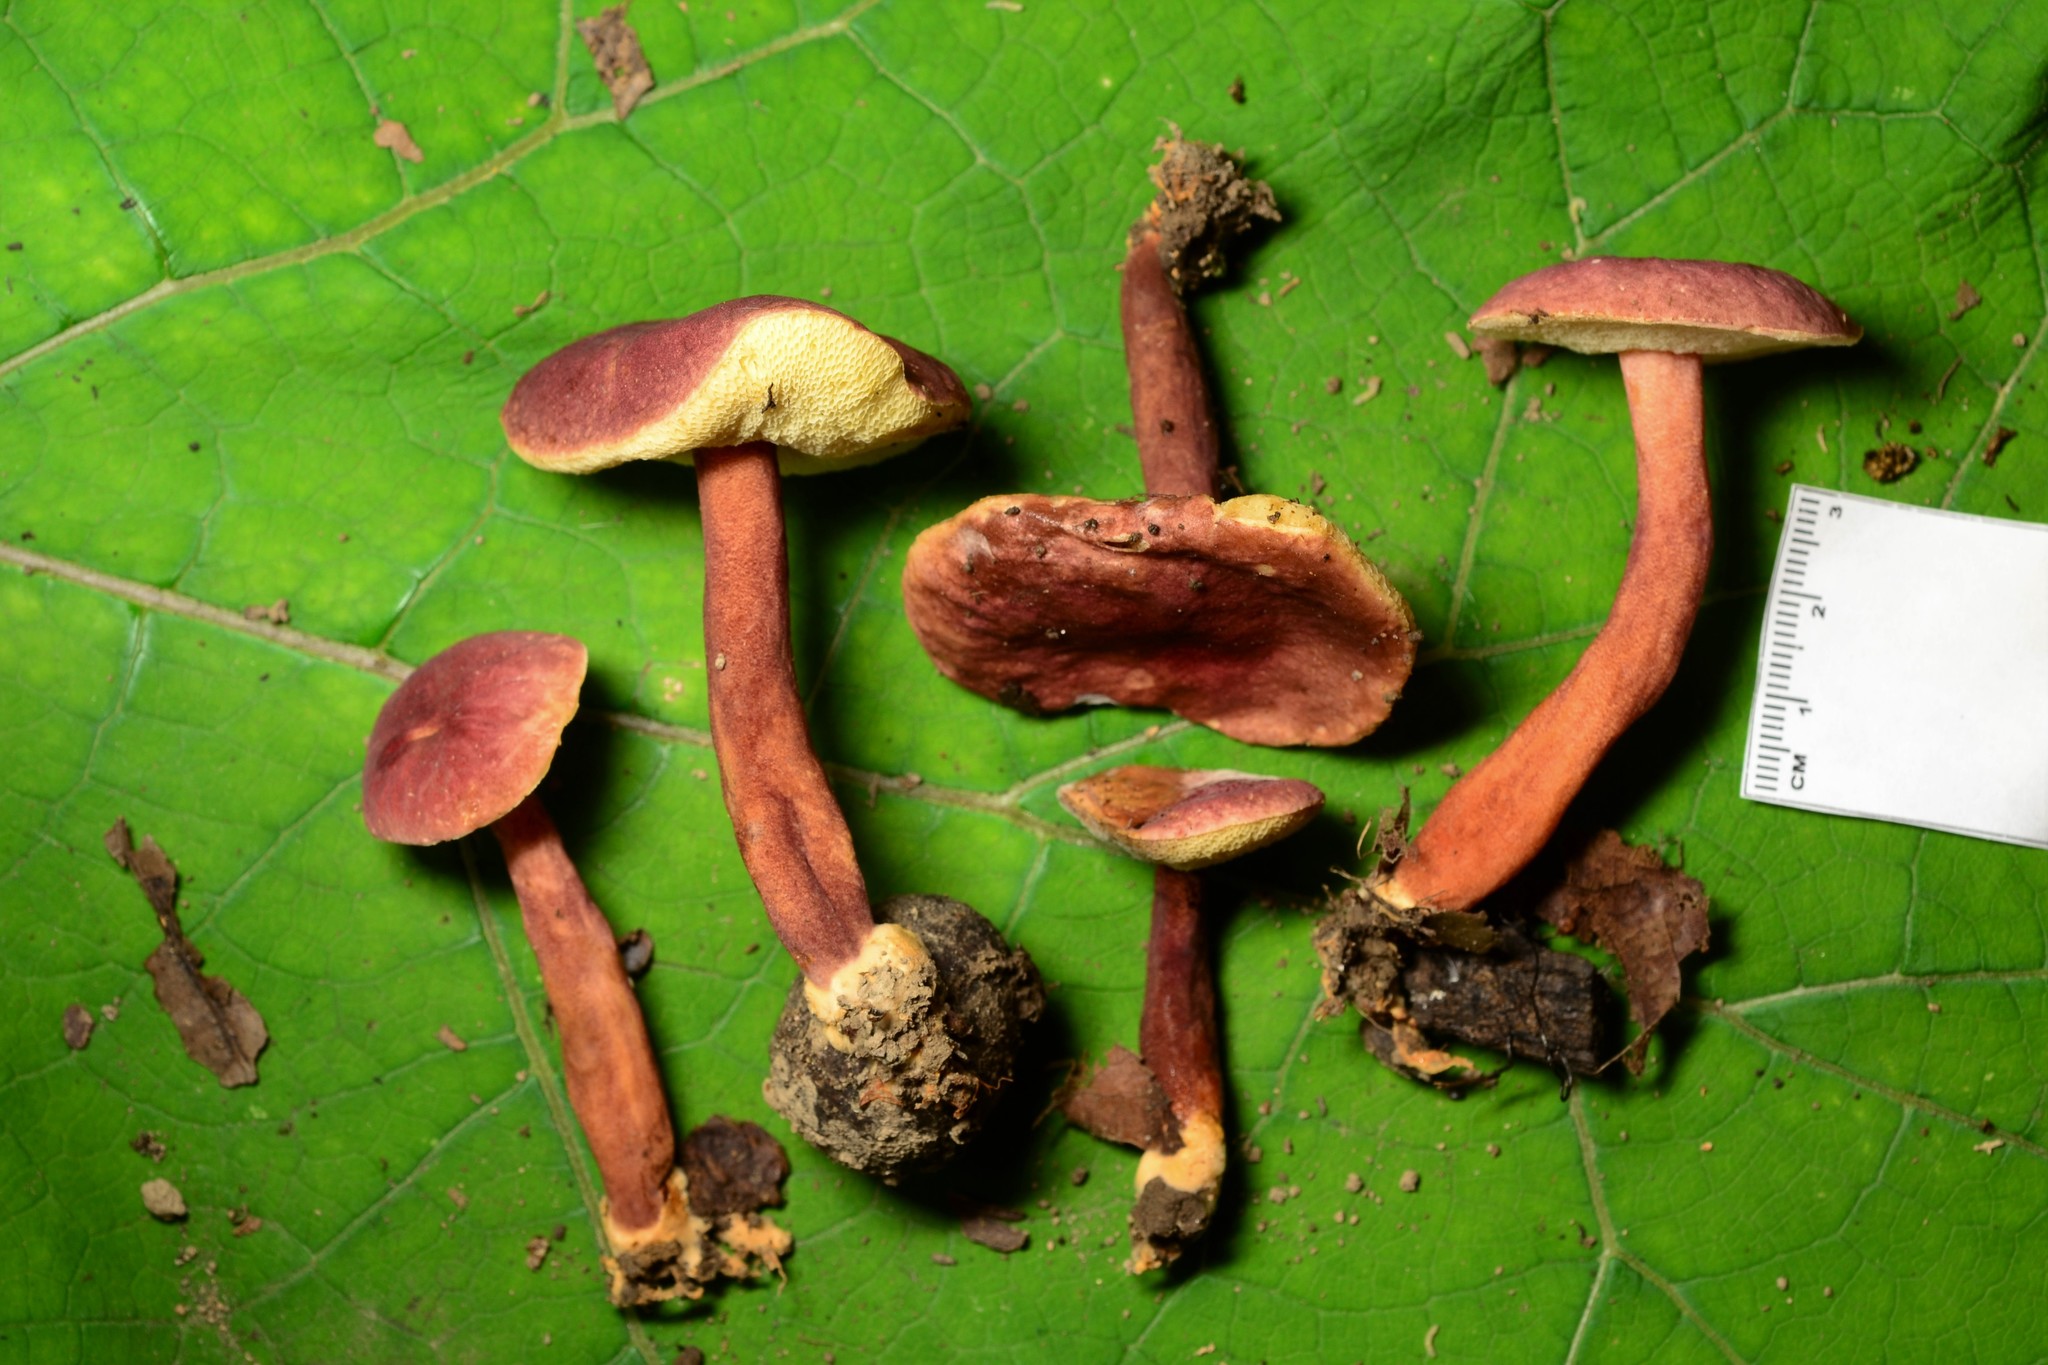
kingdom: Fungi
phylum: Basidiomycota
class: Agaricomycetes
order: Boletales
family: Gyroporaceae
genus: Gyroporus
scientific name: Gyroporus purpurinus
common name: Red gyroporus
